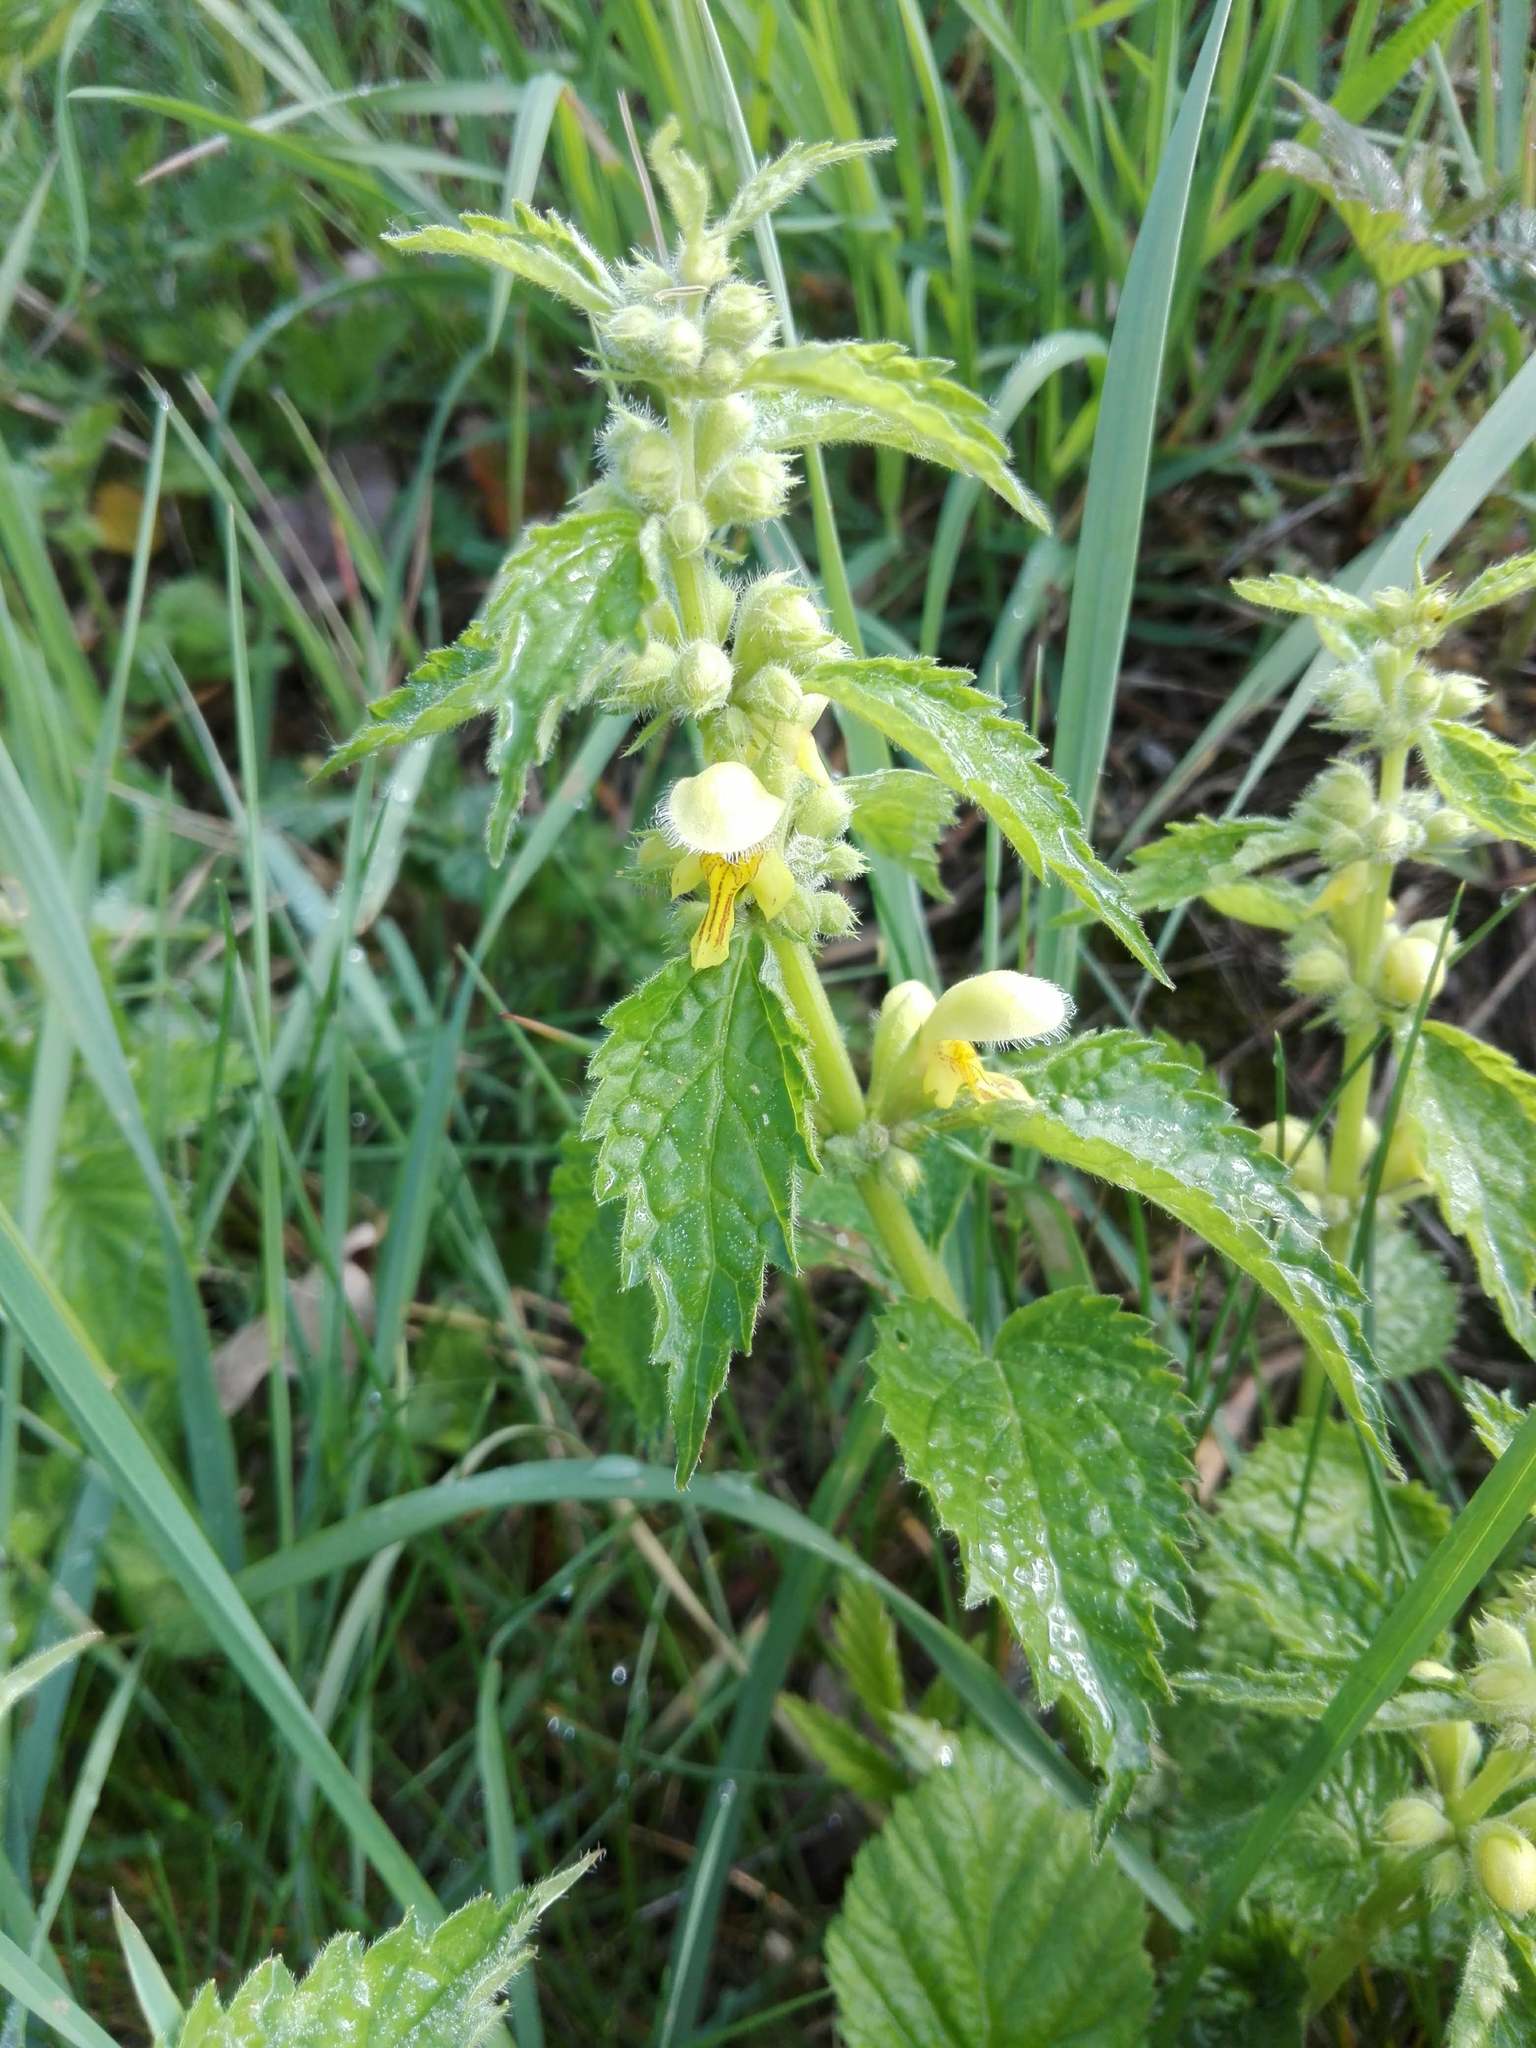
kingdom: Plantae
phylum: Tracheophyta
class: Magnoliopsida
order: Lamiales
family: Lamiaceae
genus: Lamium
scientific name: Lamium galeobdolon
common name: Yellow archangel
